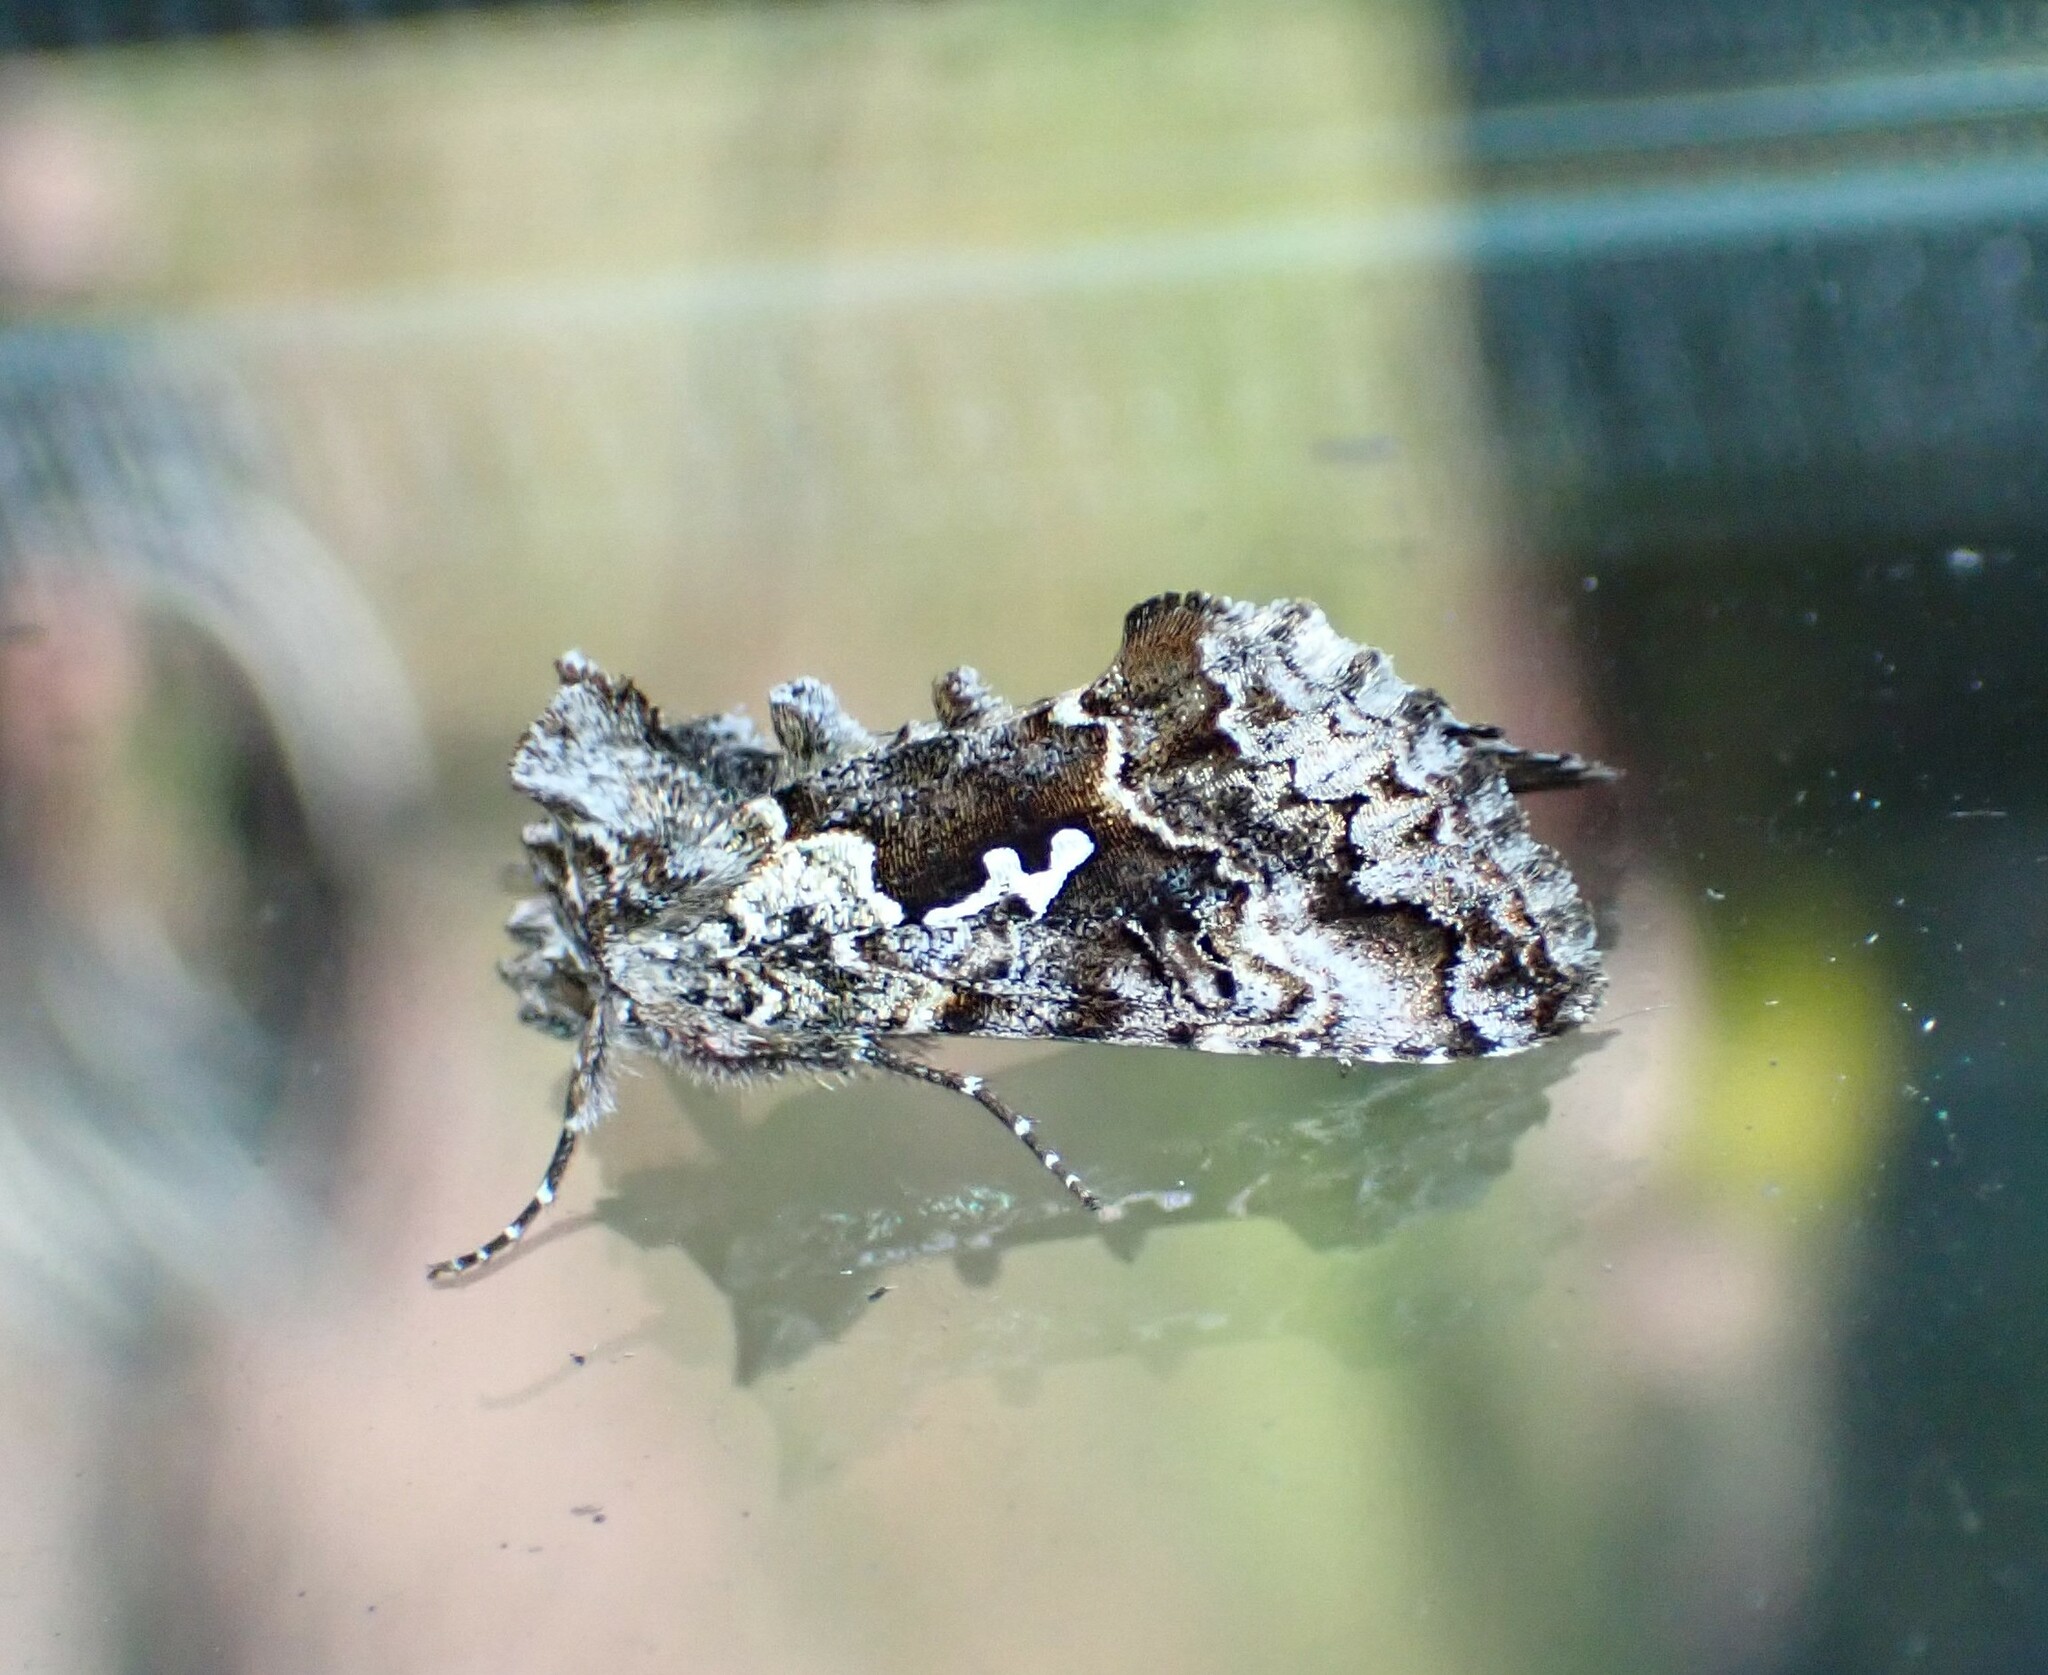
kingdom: Animalia
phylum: Arthropoda
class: Insecta
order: Lepidoptera
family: Noctuidae
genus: Syngrapha
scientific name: Syngrapha rectangula
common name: Angulated cutworm
